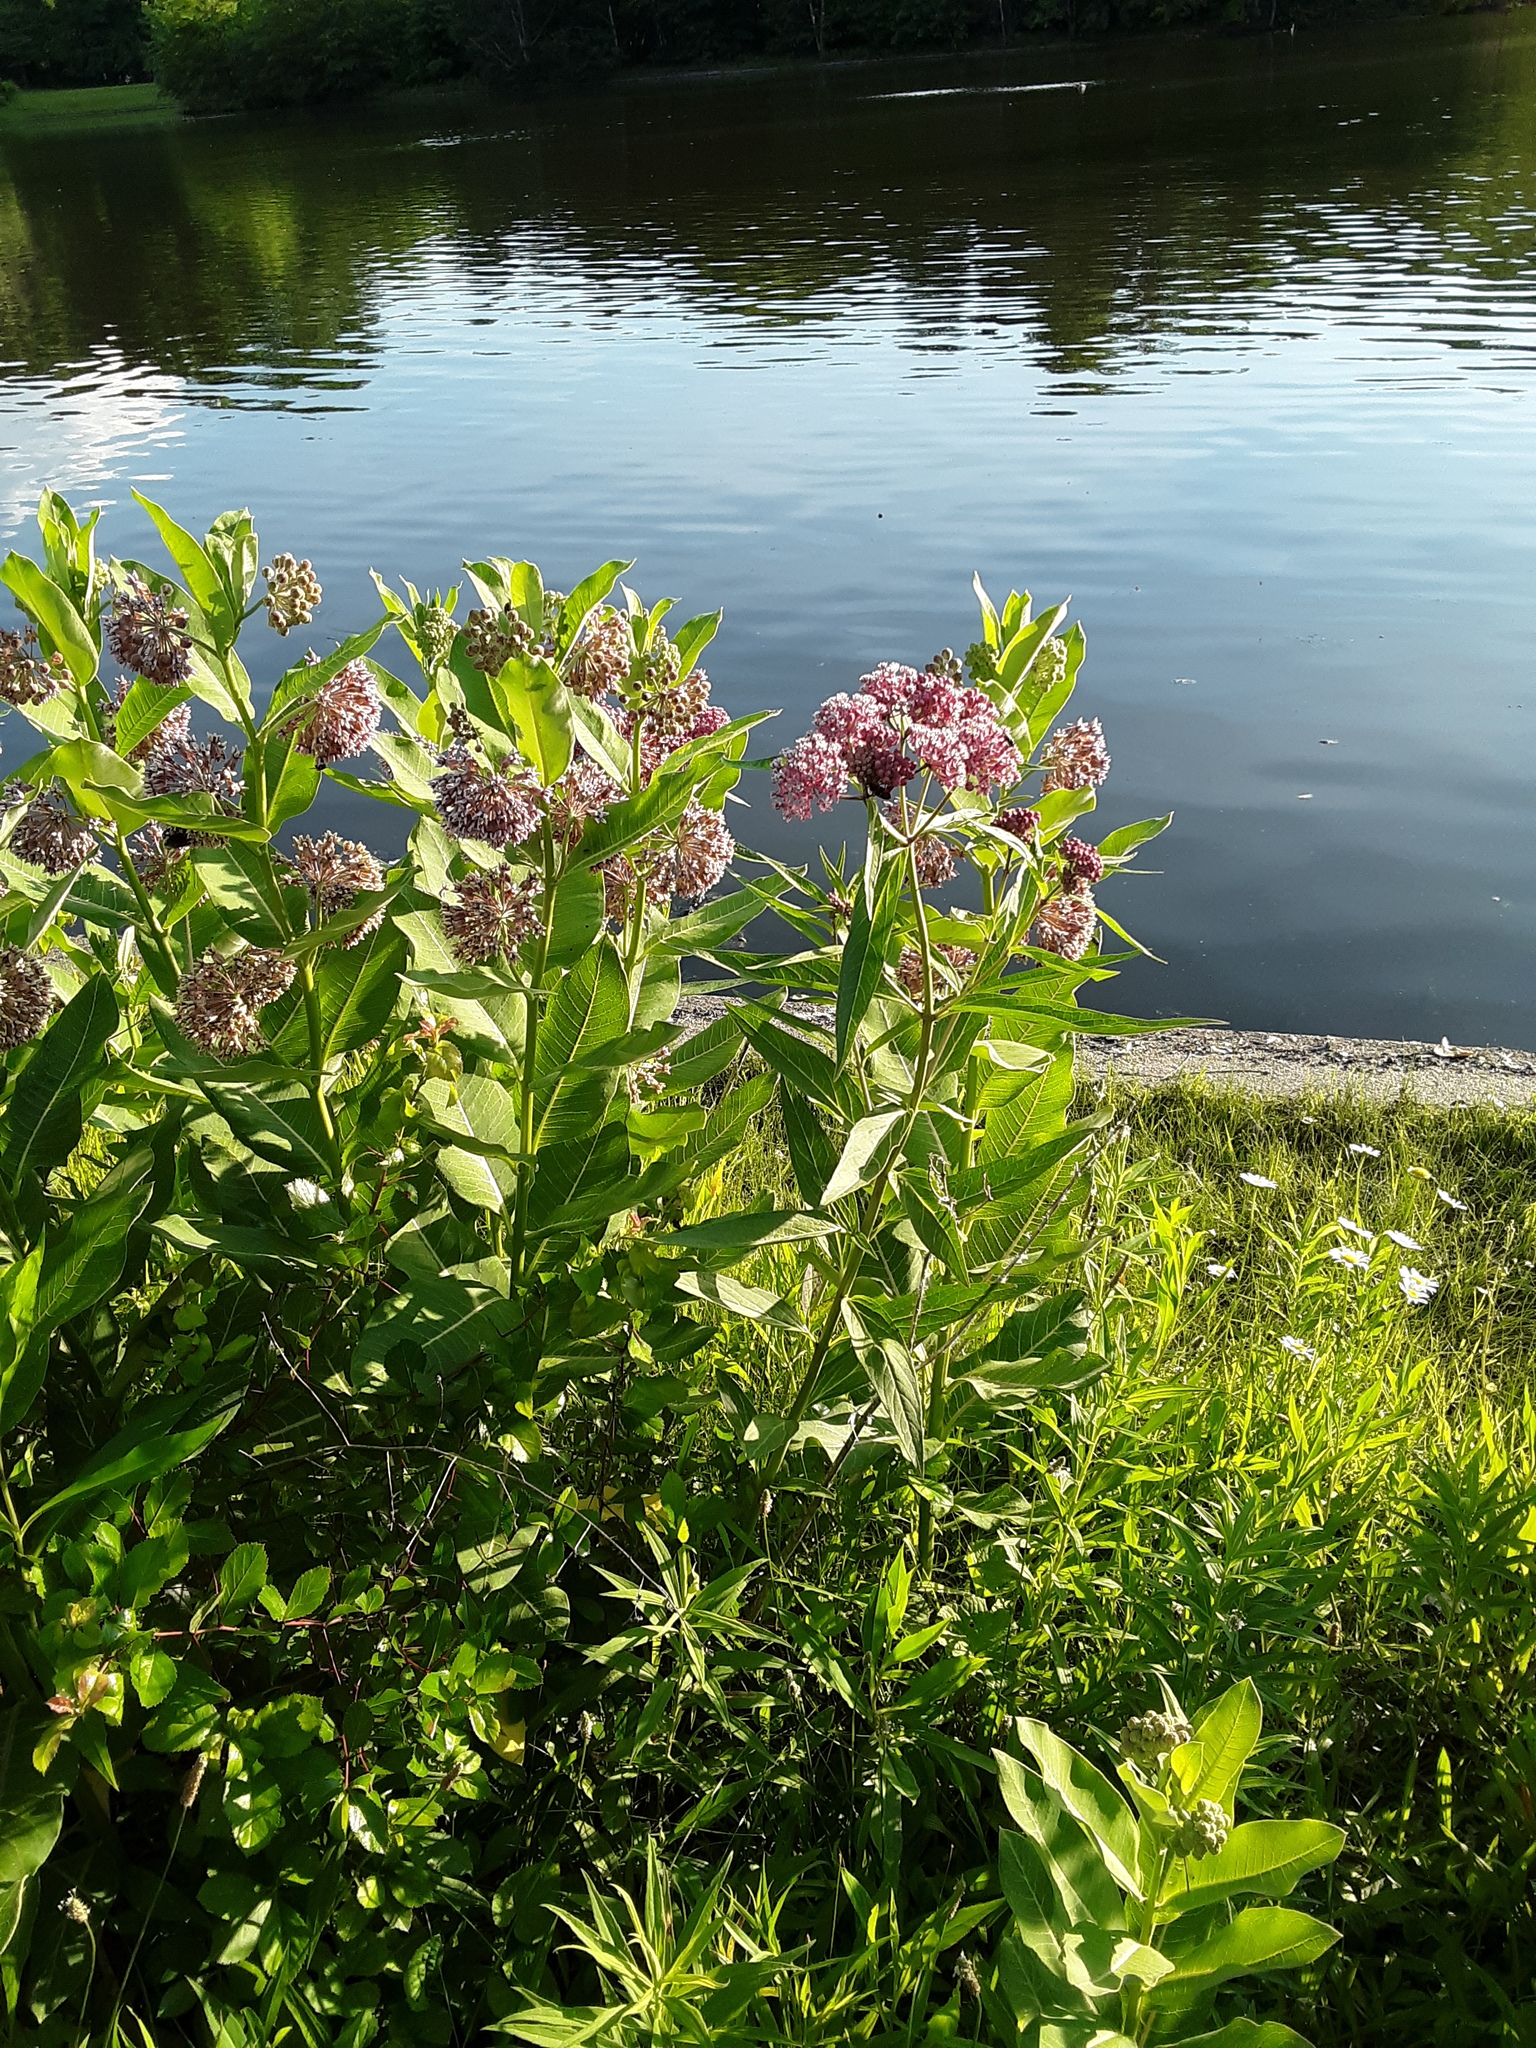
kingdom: Plantae
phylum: Tracheophyta
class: Magnoliopsida
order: Gentianales
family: Apocynaceae
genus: Asclepias
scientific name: Asclepias incarnata
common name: Swamp milkweed
